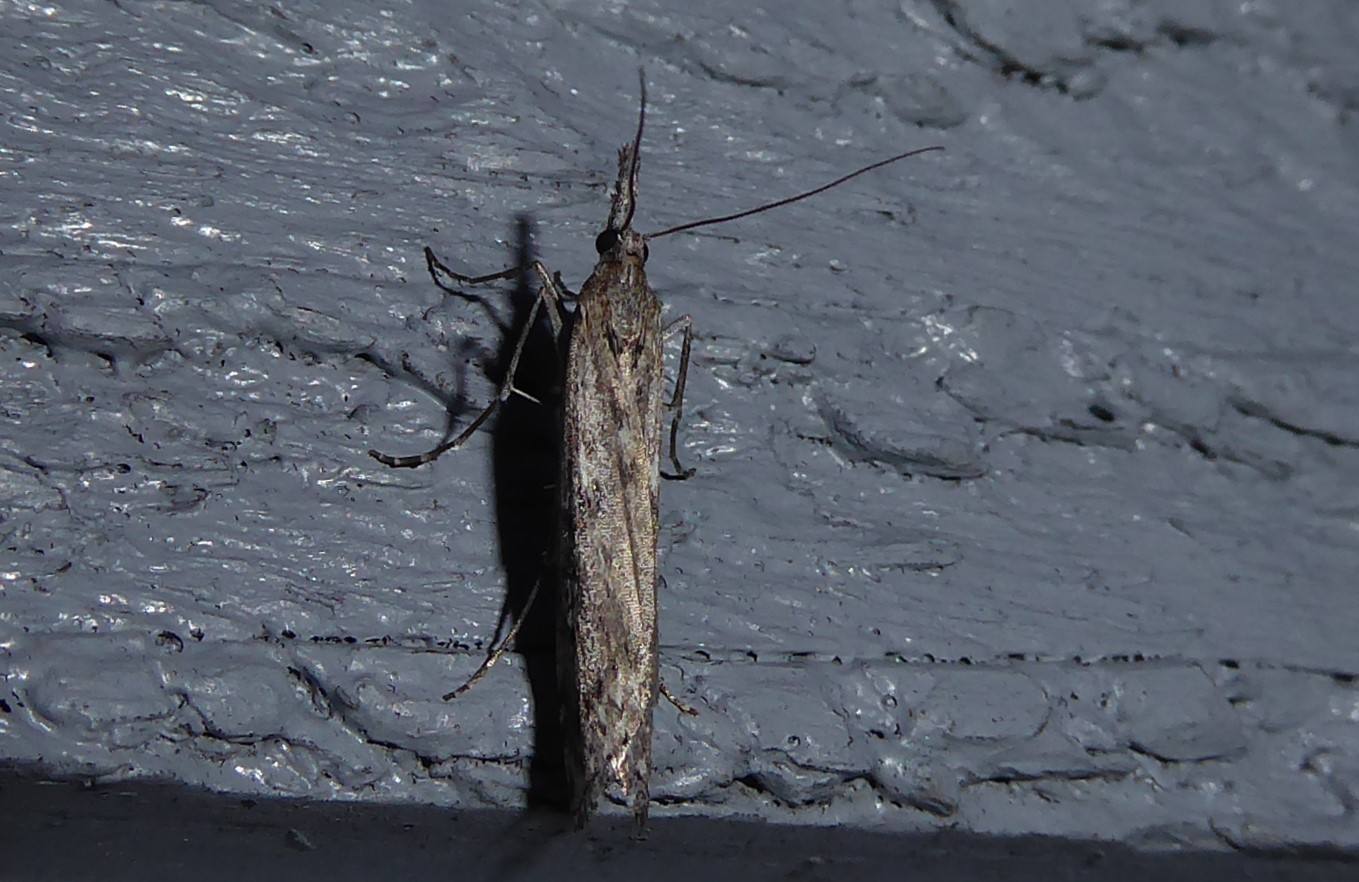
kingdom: Animalia
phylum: Arthropoda
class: Insecta
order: Lepidoptera
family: Crambidae
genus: Orocrambus
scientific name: Orocrambus cyclopicus
